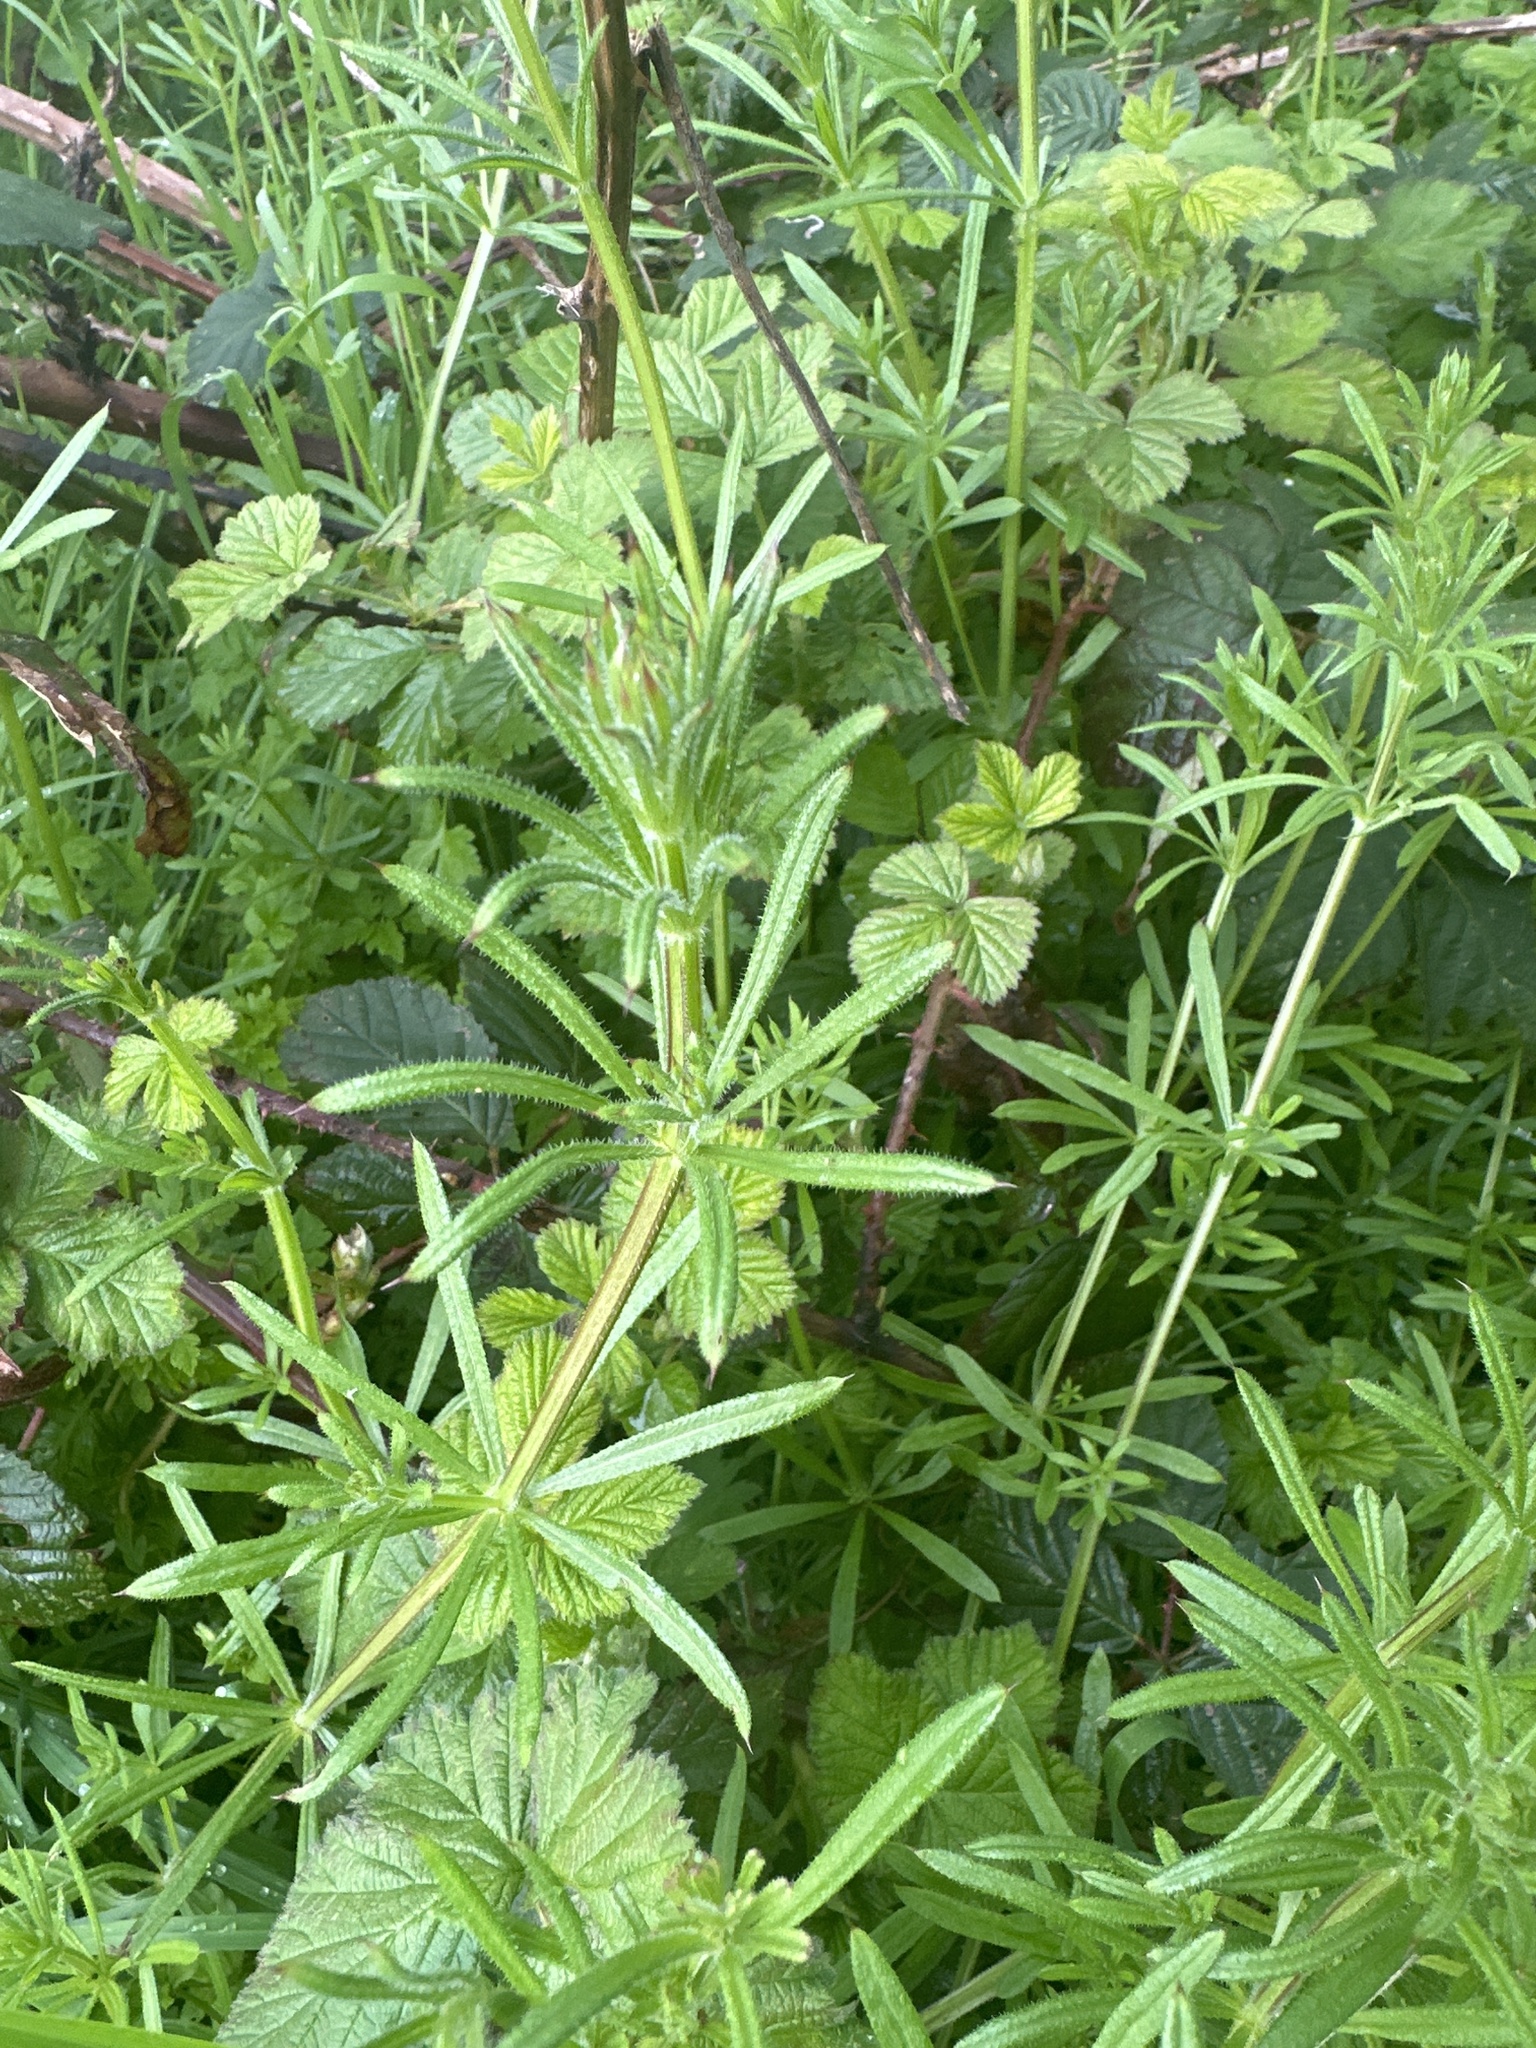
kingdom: Plantae
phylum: Tracheophyta
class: Magnoliopsida
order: Gentianales
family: Rubiaceae
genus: Galium
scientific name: Galium aparine
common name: Cleavers
